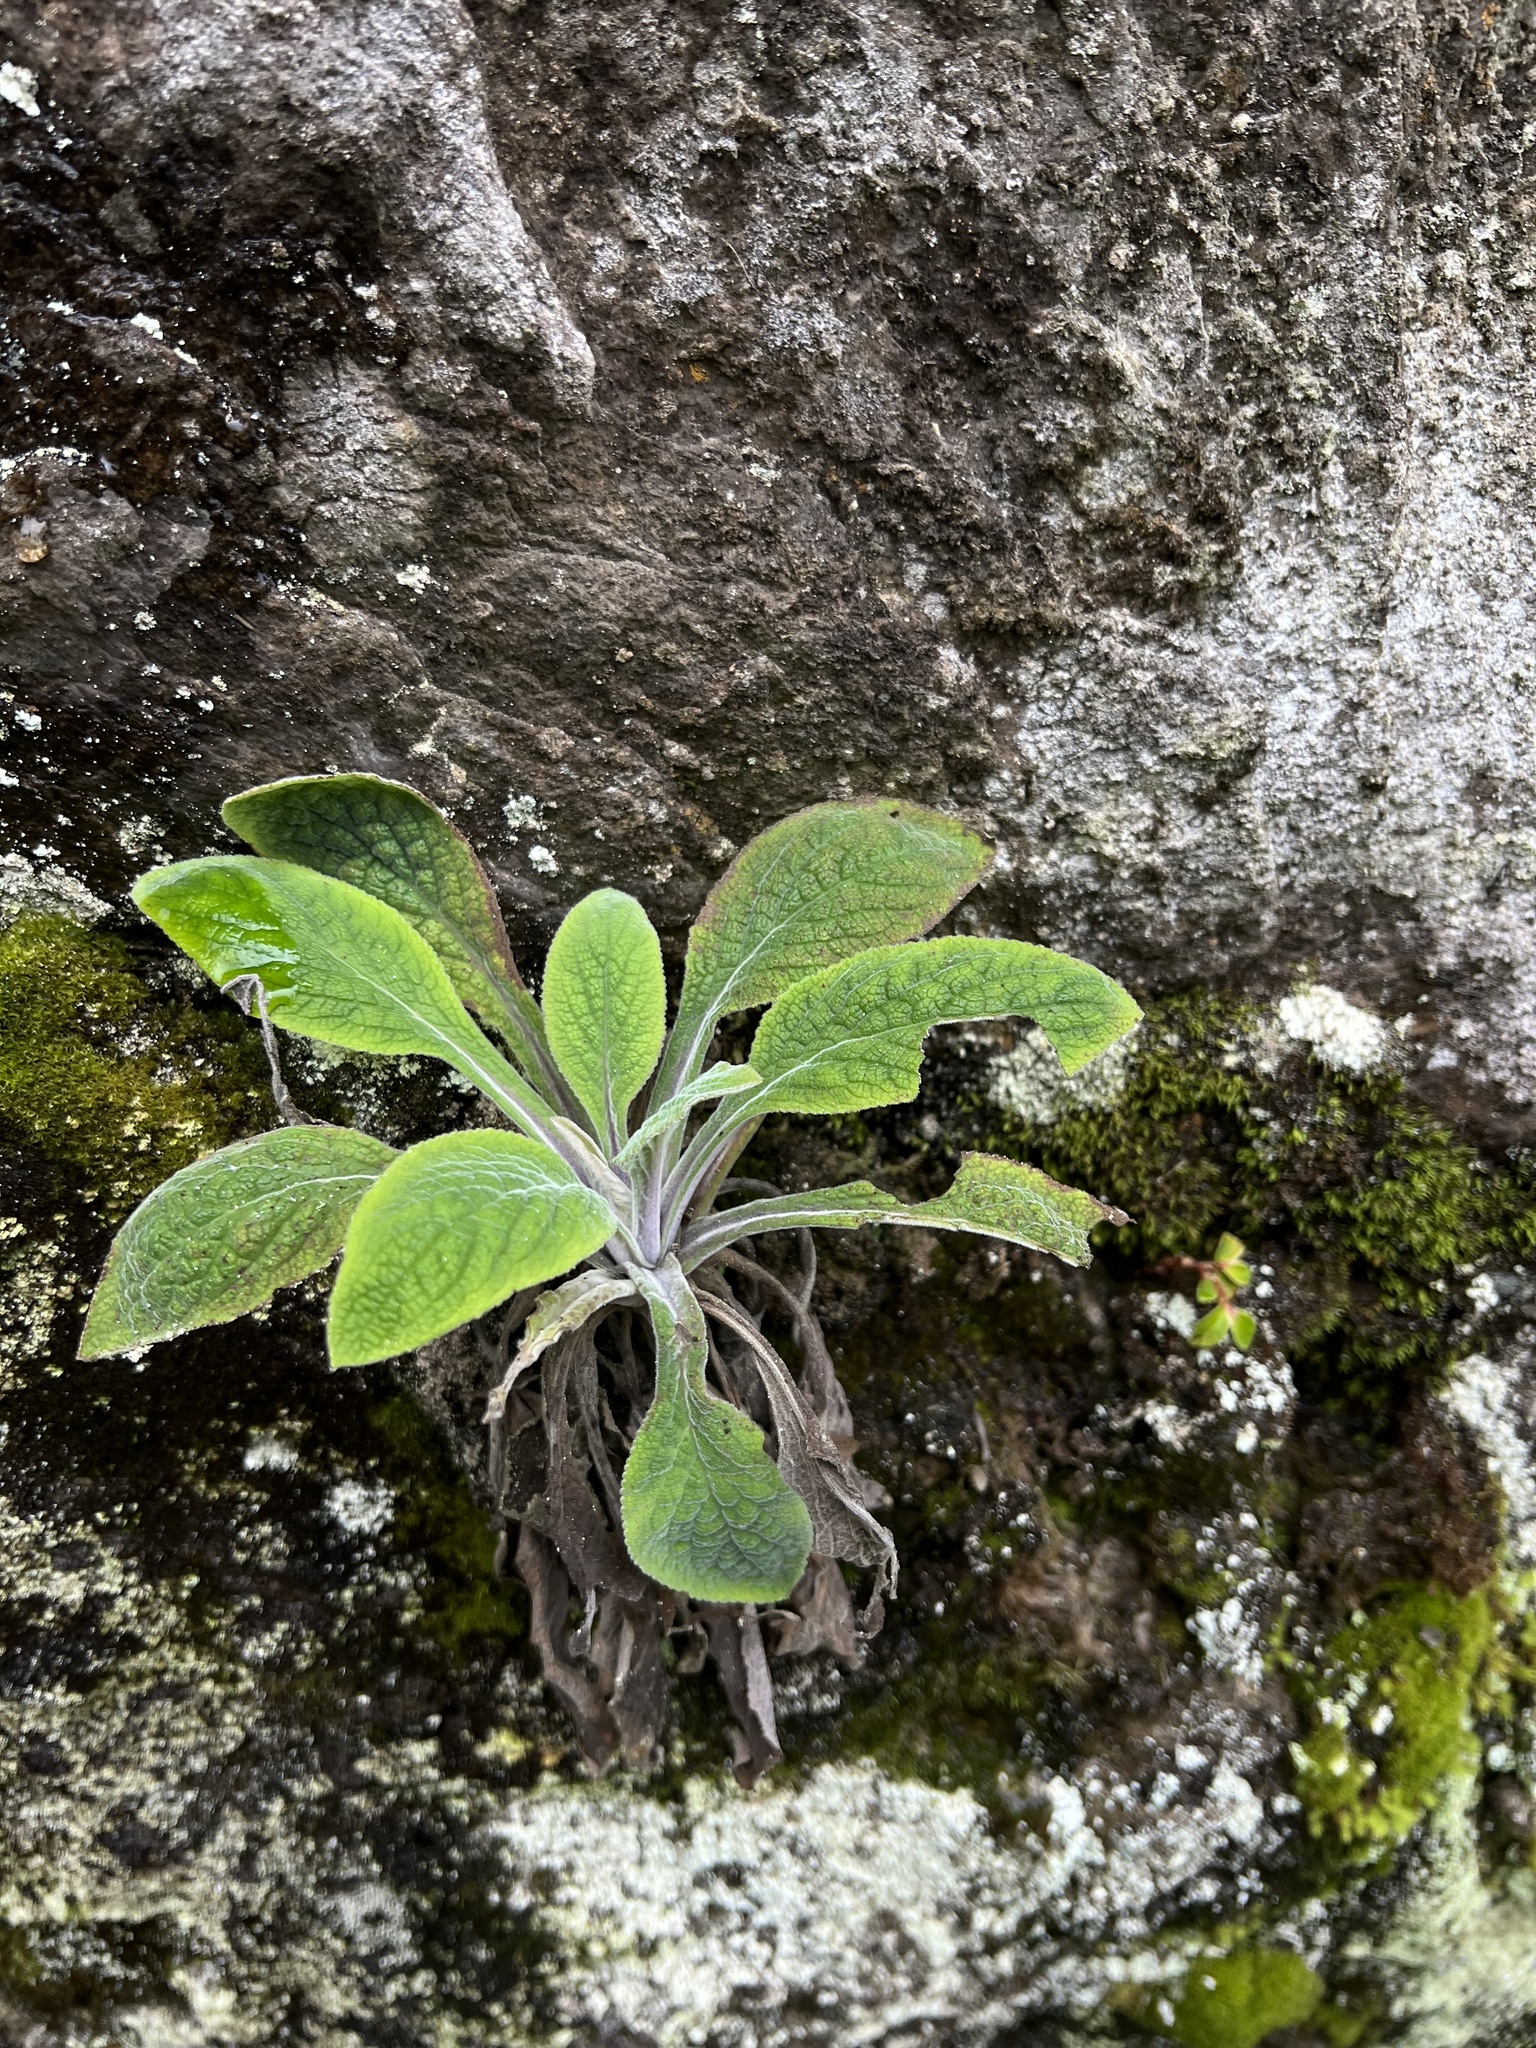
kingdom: Plantae
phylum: Tracheophyta
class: Magnoliopsida
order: Lamiales
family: Plantaginaceae
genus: Digitalis
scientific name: Digitalis purpurea
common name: Foxglove
